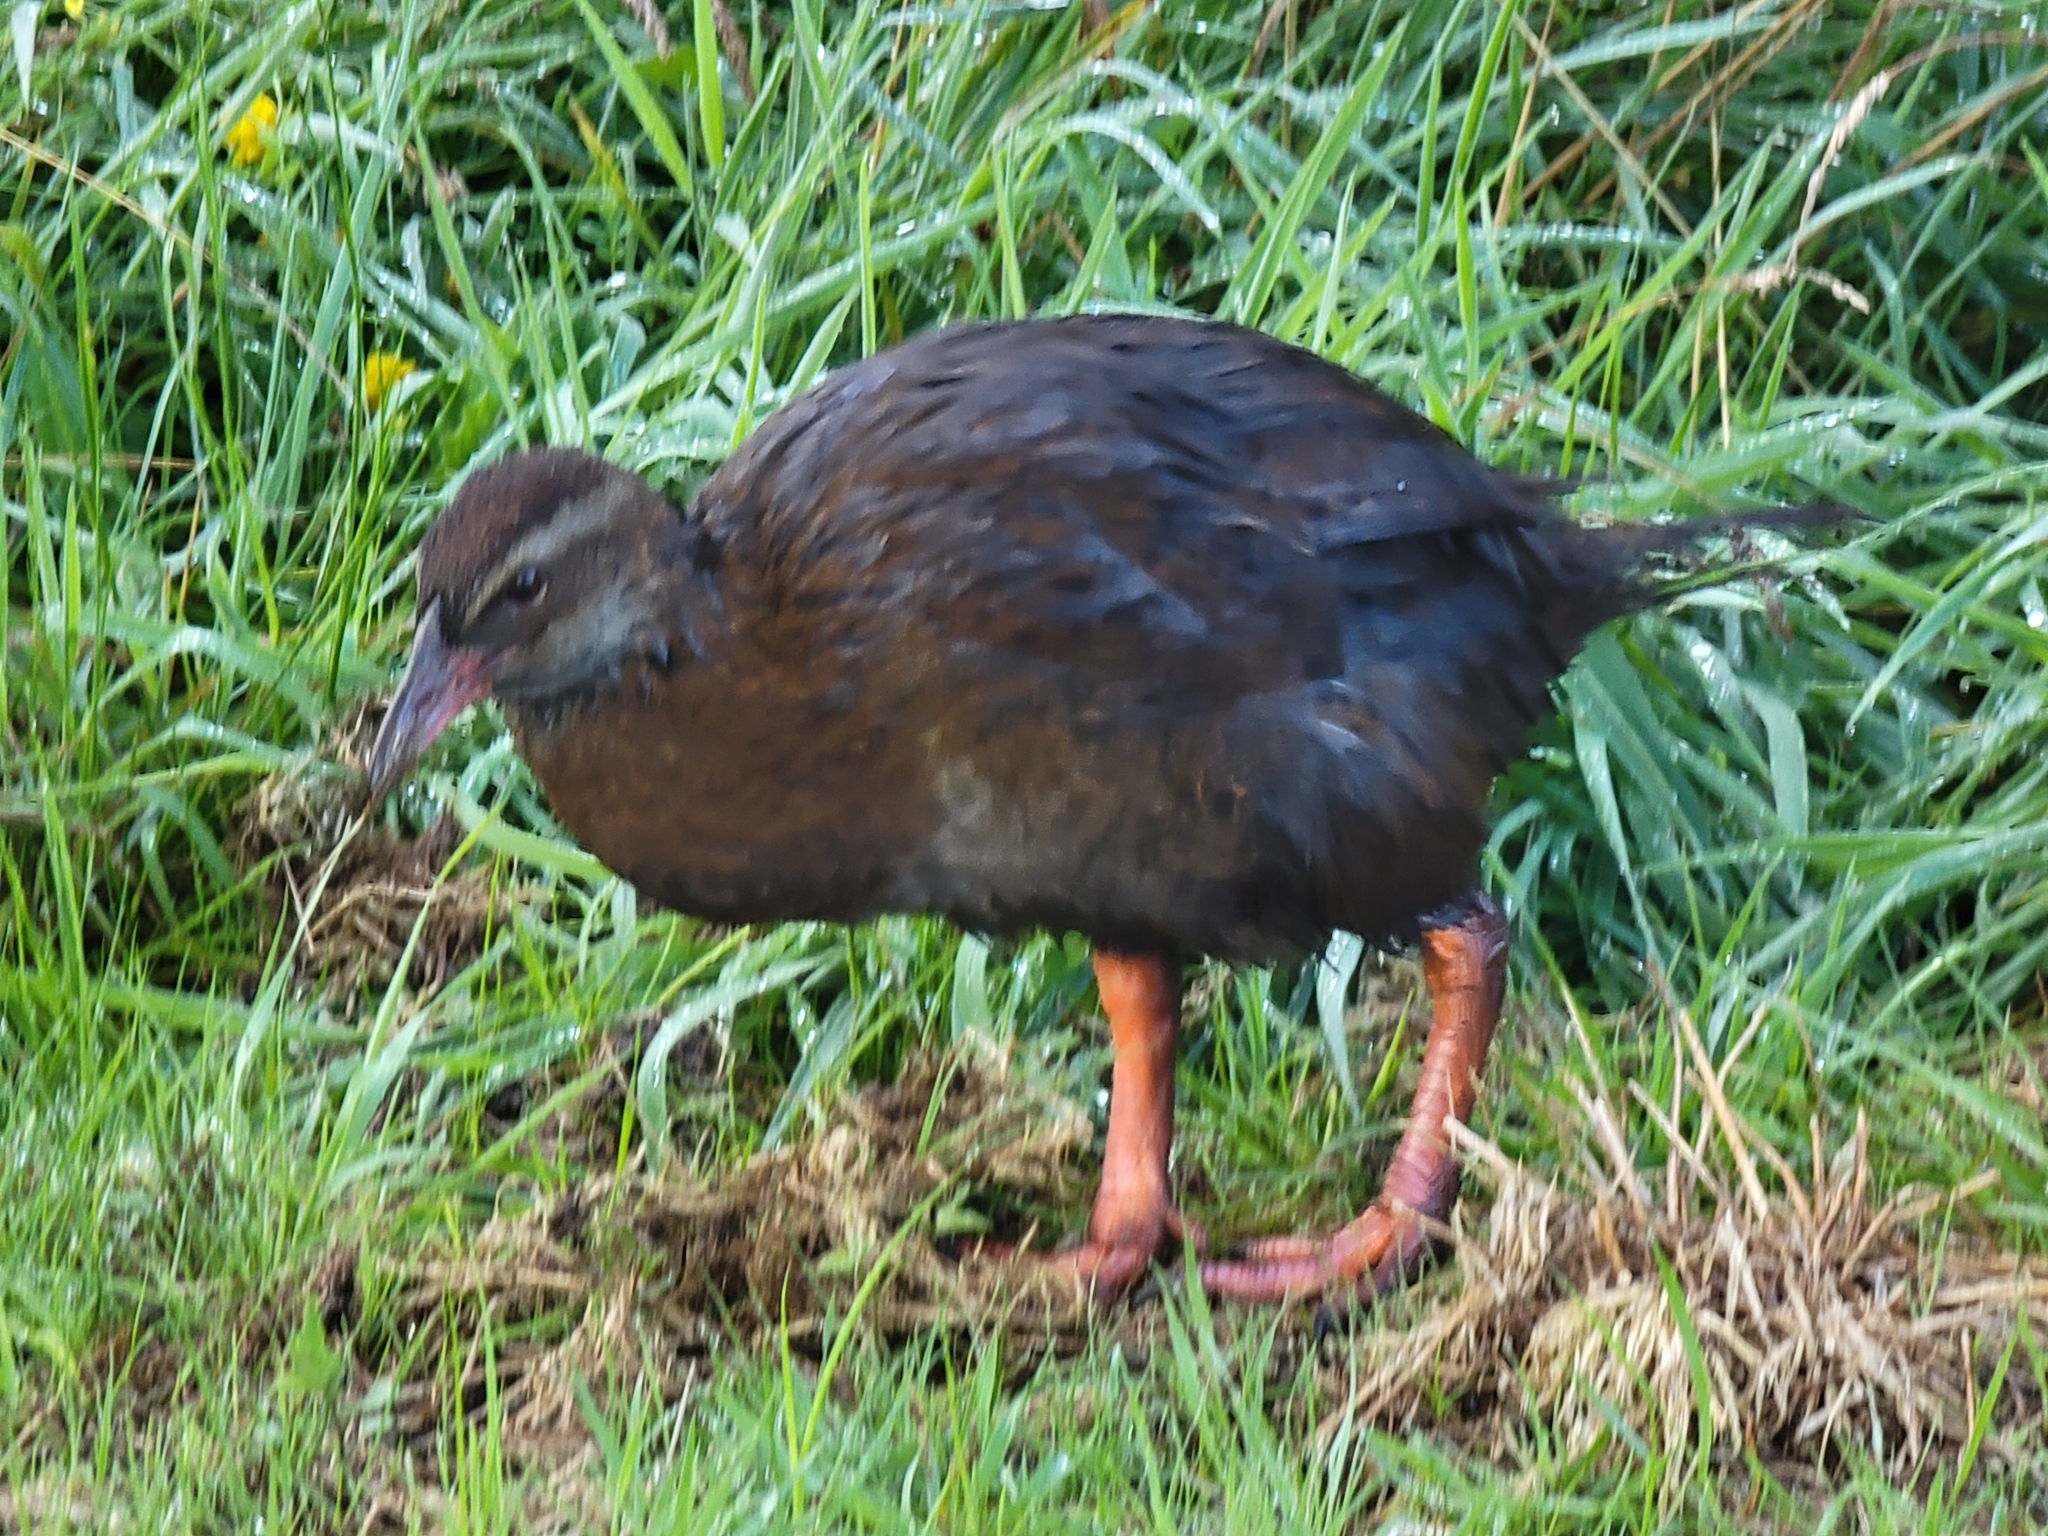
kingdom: Animalia
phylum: Chordata
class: Aves
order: Gruiformes
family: Rallidae
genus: Gallirallus
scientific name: Gallirallus australis
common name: Weka
